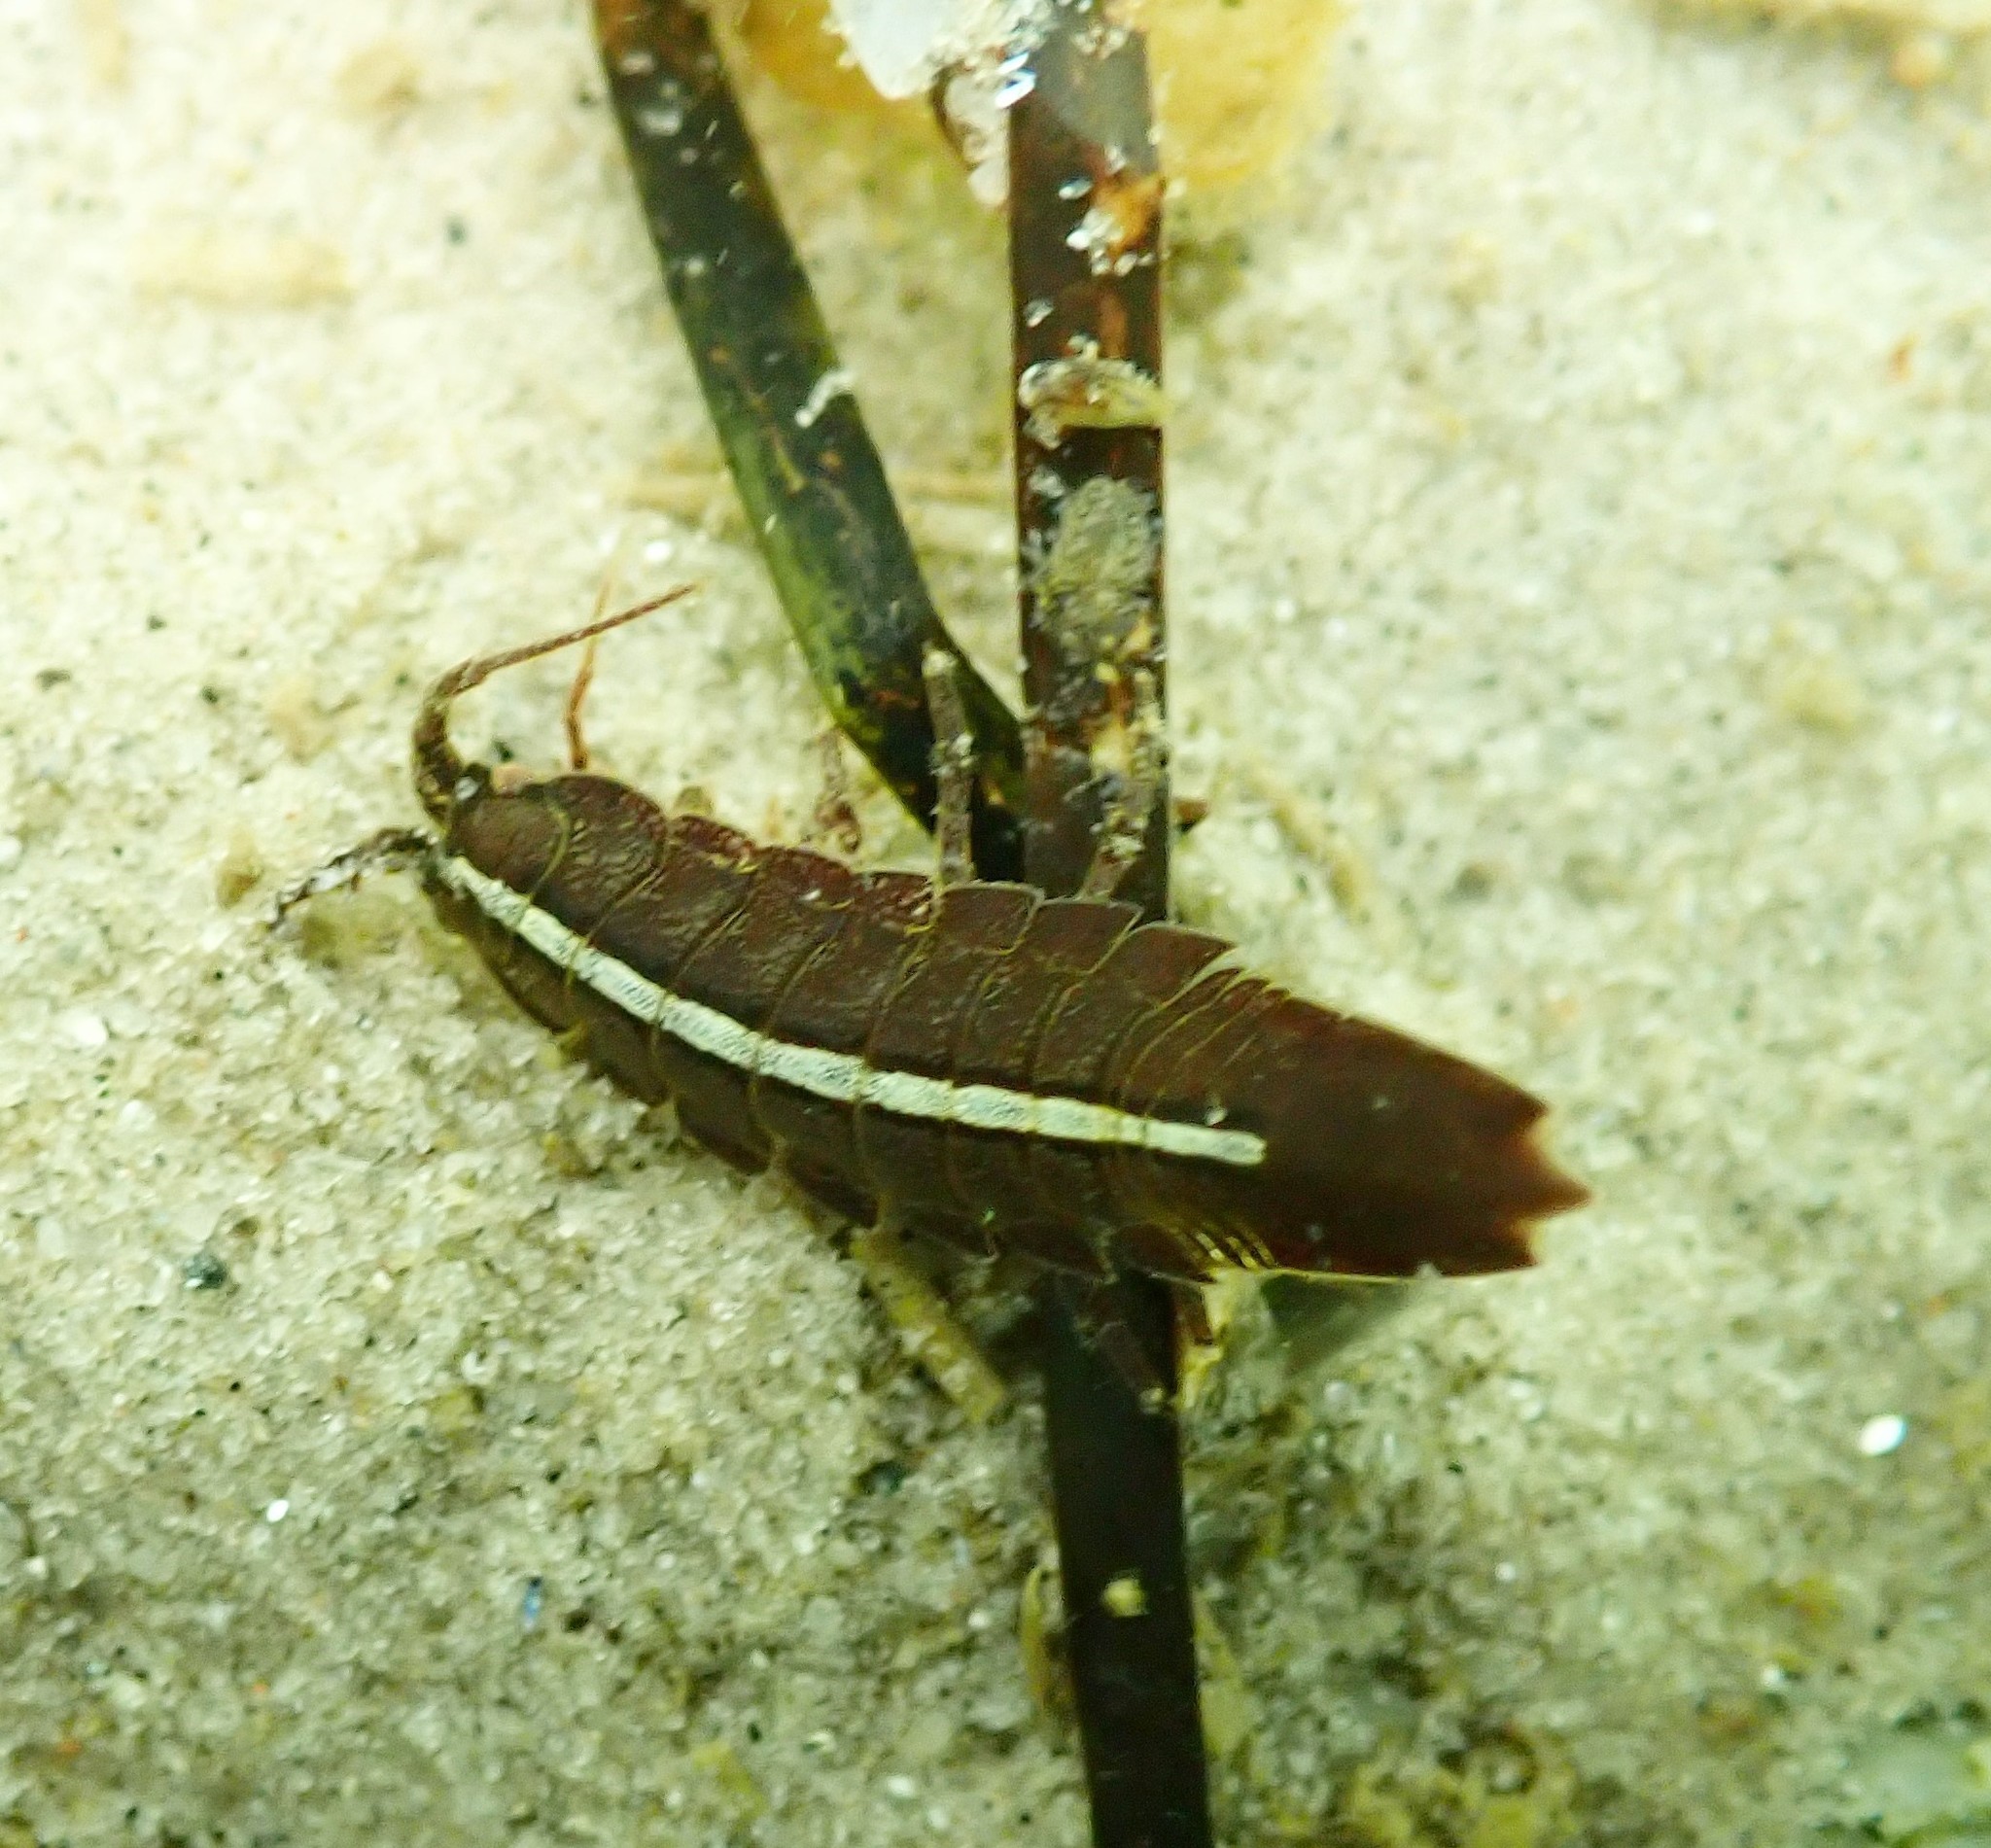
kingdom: Animalia
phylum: Arthropoda
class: Malacostraca
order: Isopoda
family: Idoteidae
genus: Idotea
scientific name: Idotea balthica
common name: Baltic isopod
